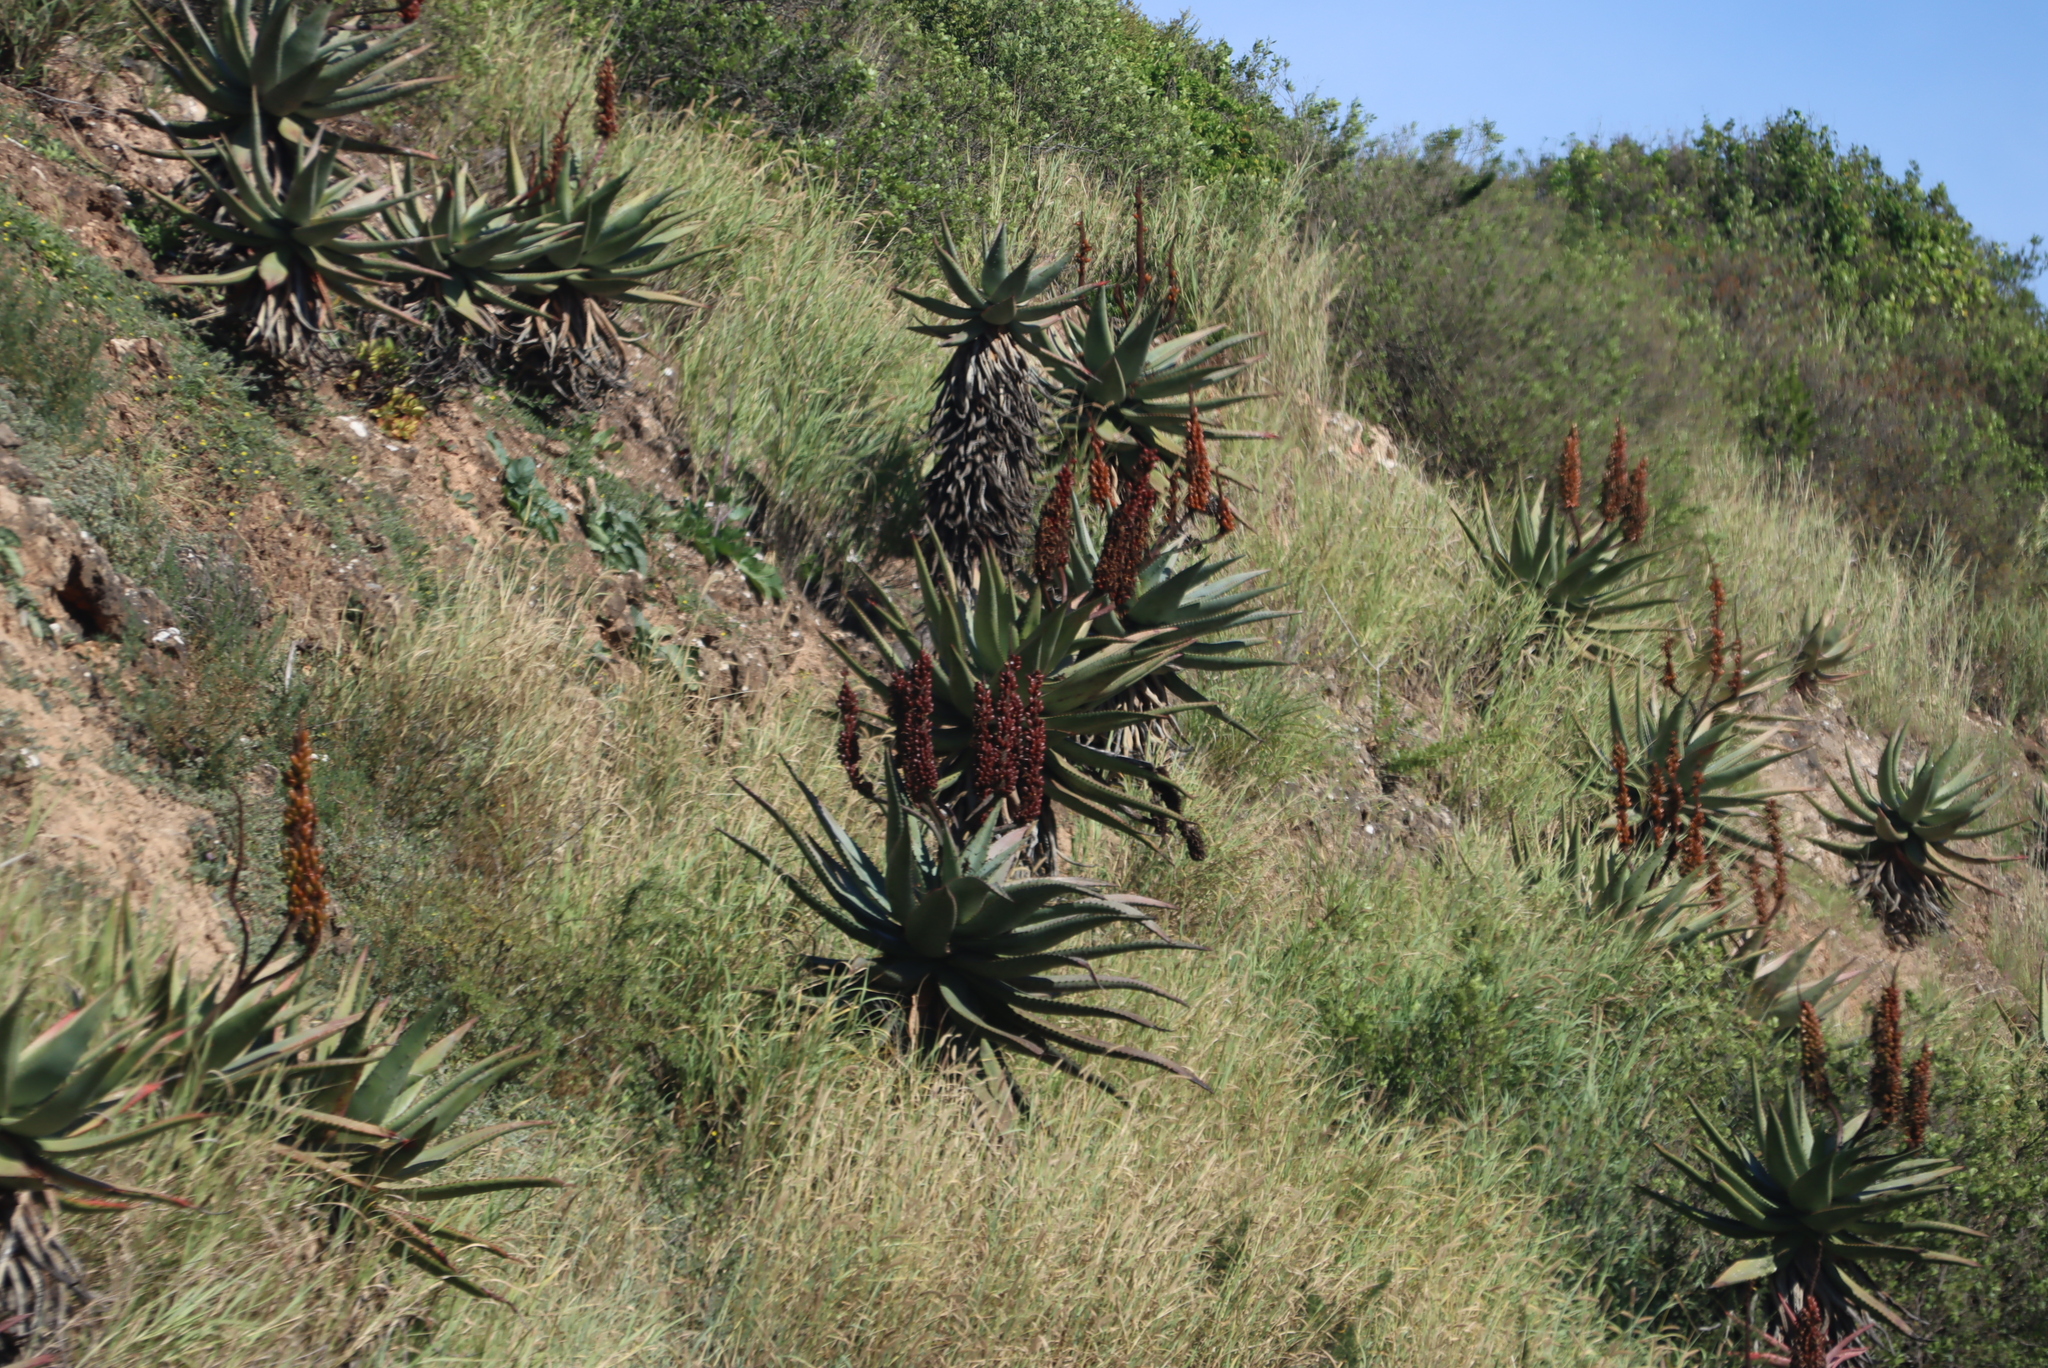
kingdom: Plantae
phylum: Tracheophyta
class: Liliopsida
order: Asparagales
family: Asphodelaceae
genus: Aloe
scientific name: Aloe ferox
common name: Bitter aloe
